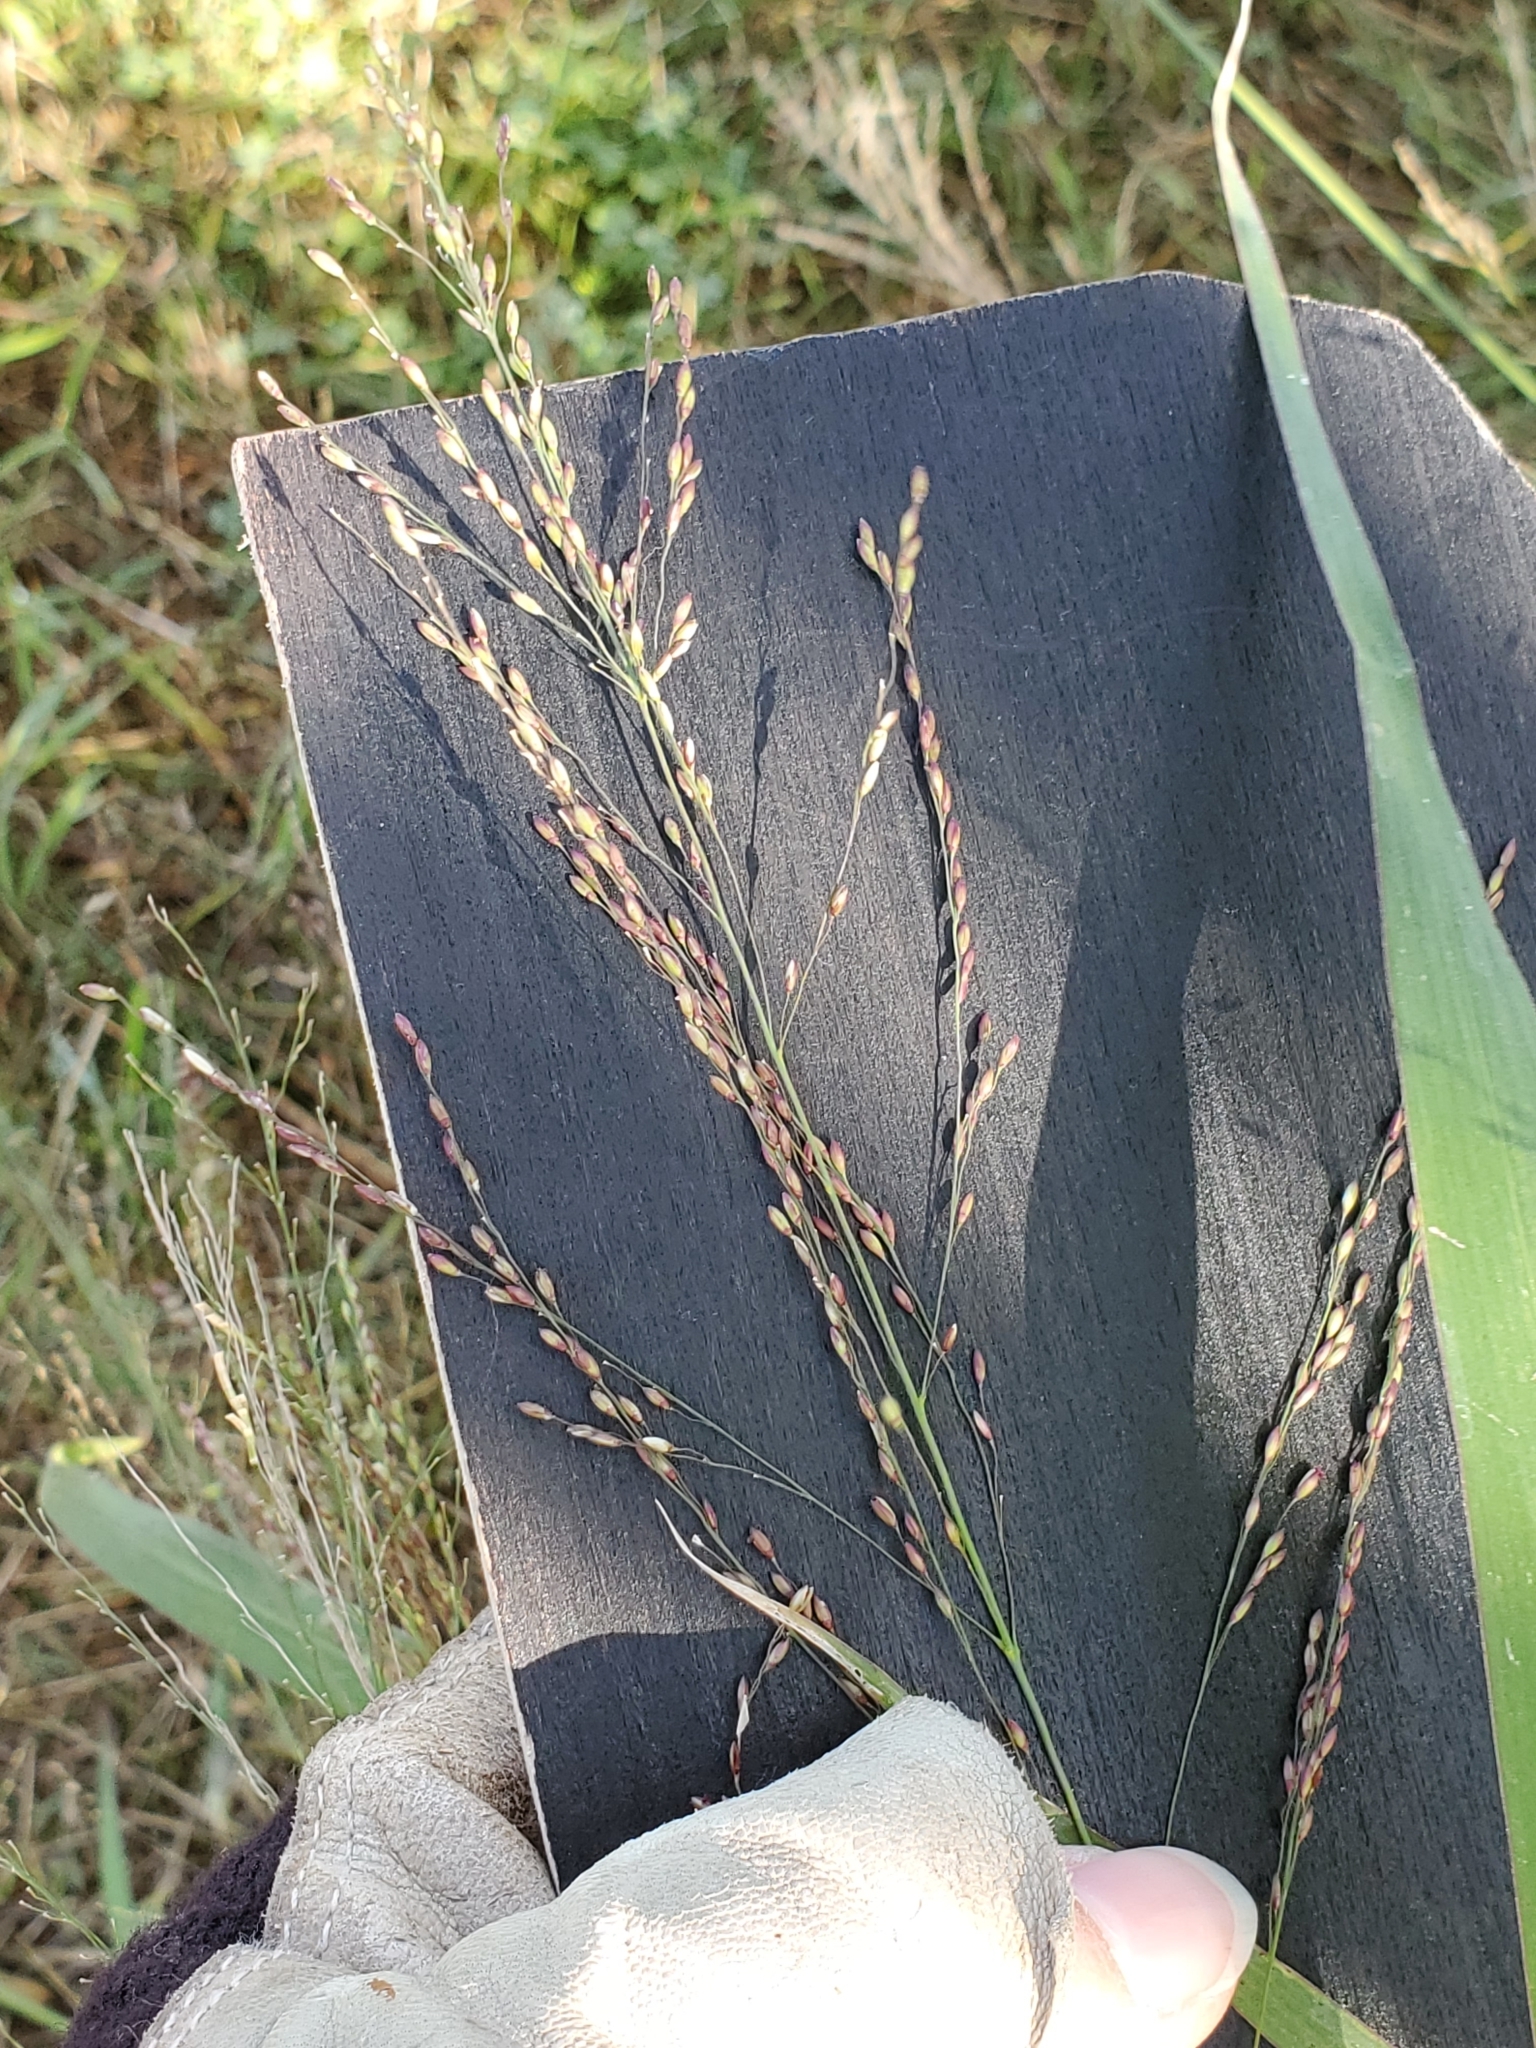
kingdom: Plantae
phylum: Tracheophyta
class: Liliopsida
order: Poales
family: Poaceae
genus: Megathyrsus
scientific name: Megathyrsus maximus
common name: Guineagrass
